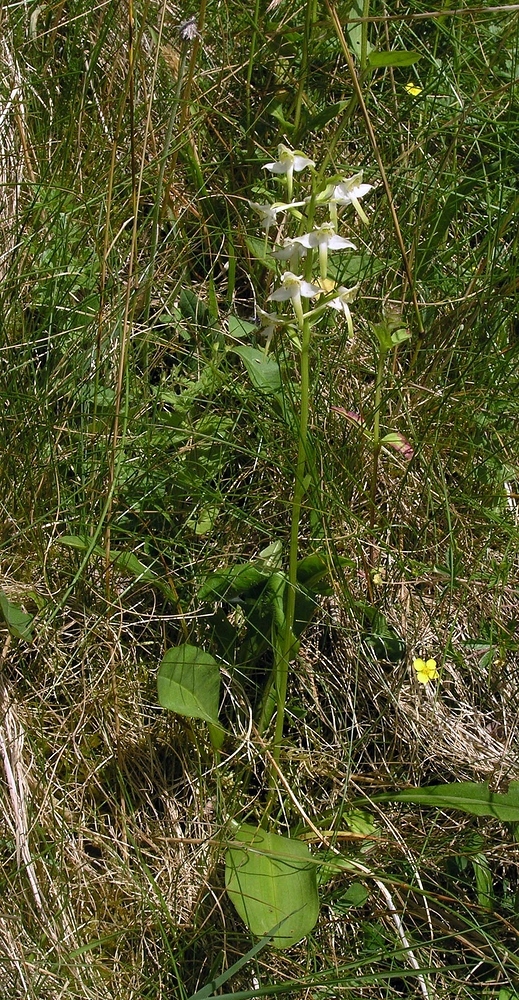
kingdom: Plantae
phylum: Tracheophyta
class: Liliopsida
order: Asparagales
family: Orchidaceae
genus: Platanthera
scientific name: Platanthera chlorantha
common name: Greater butterfly-orchid
